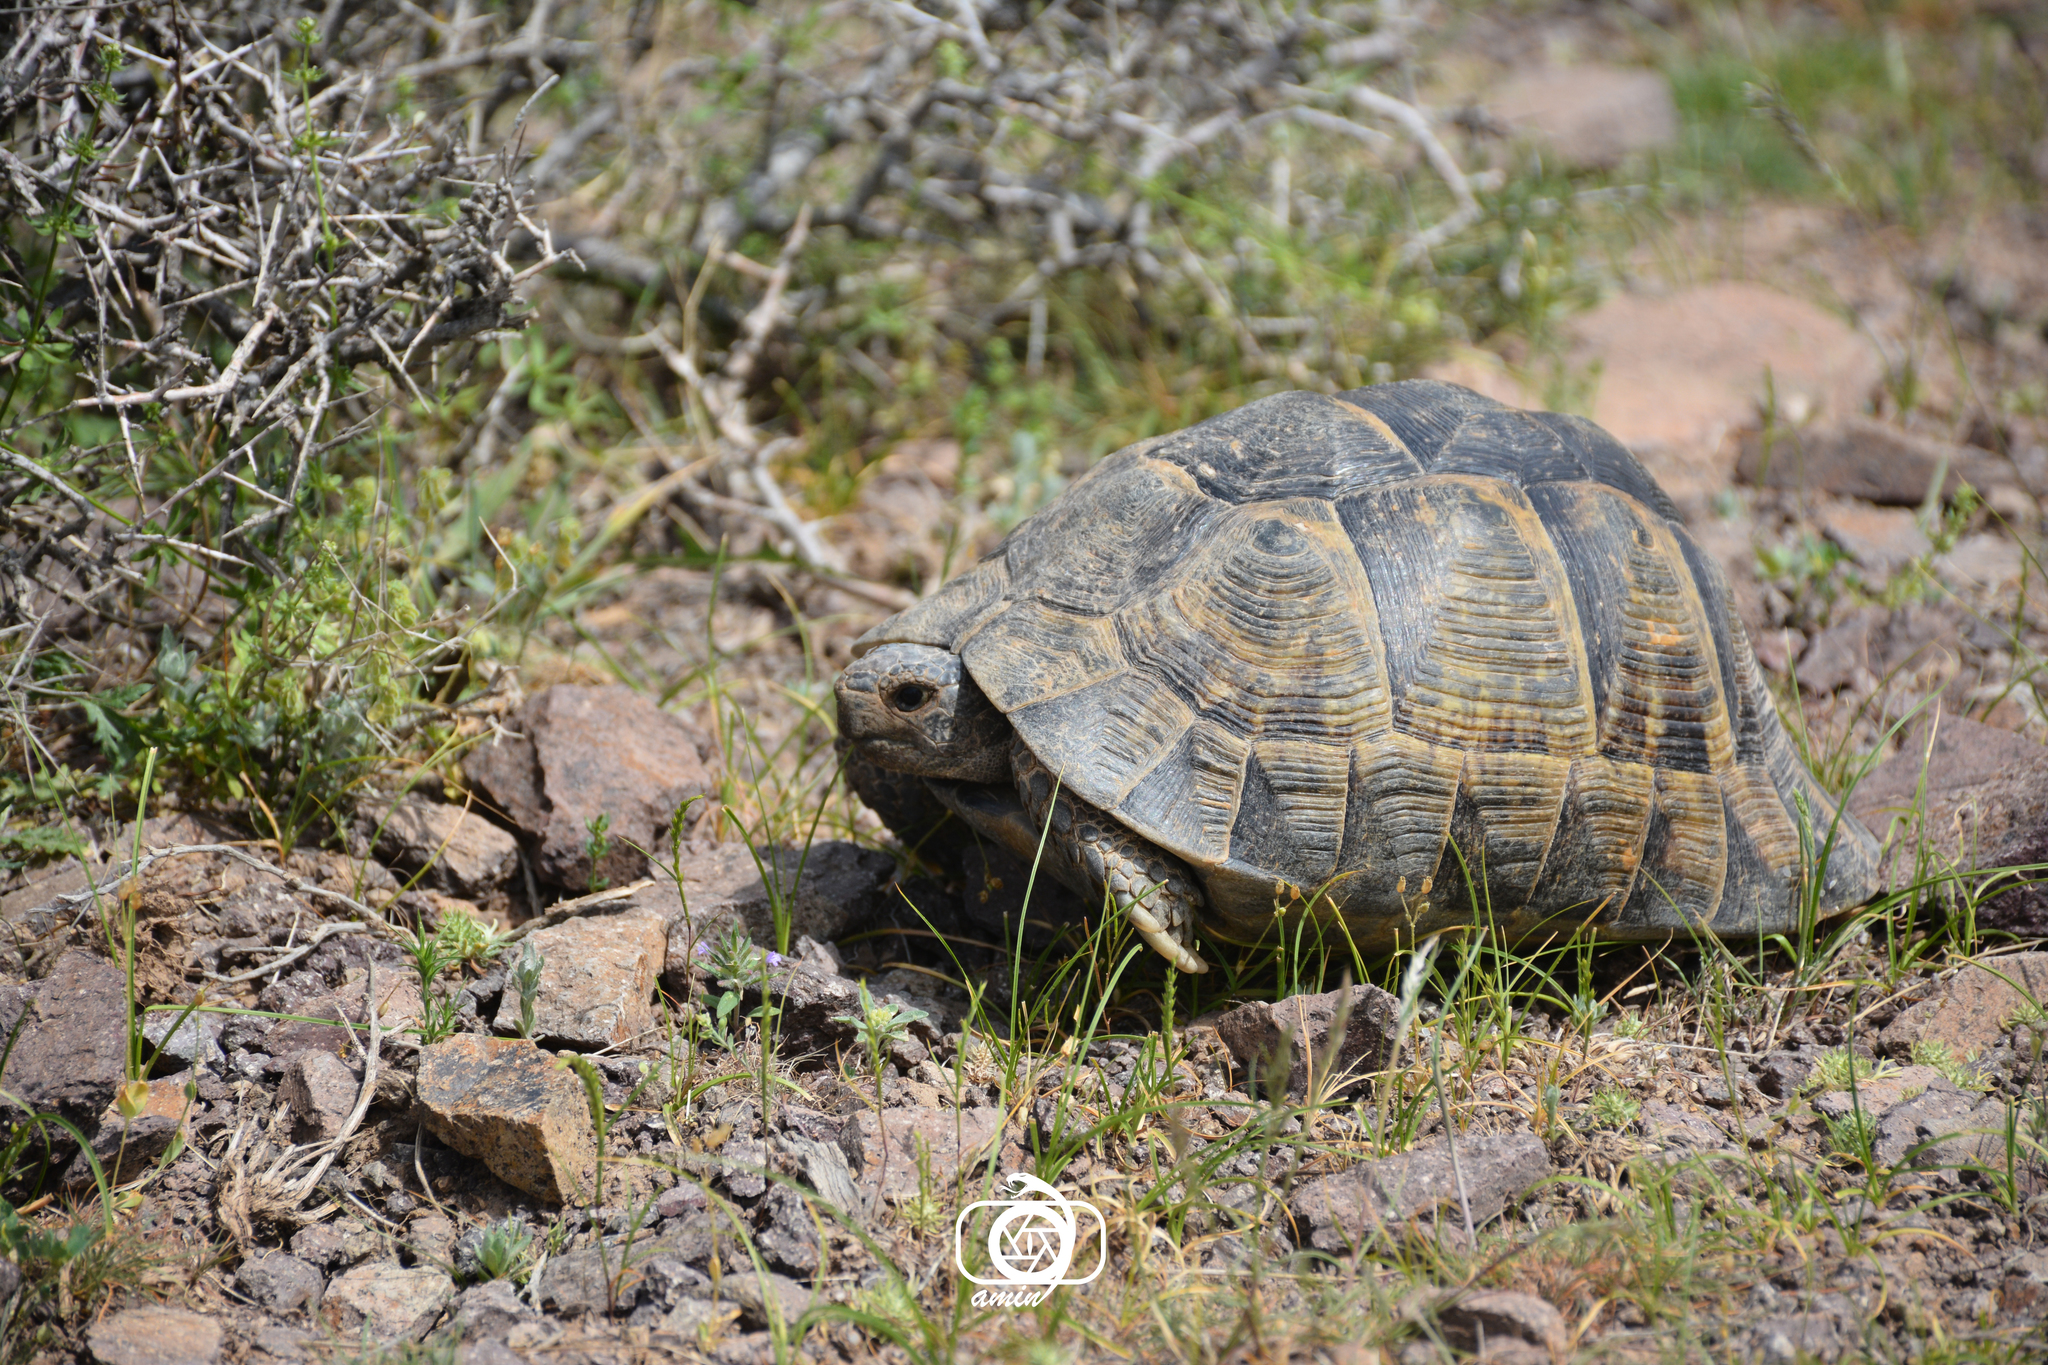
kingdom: Animalia
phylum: Chordata
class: Testudines
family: Testudinidae
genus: Testudo
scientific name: Testudo graeca
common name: Common tortoise
